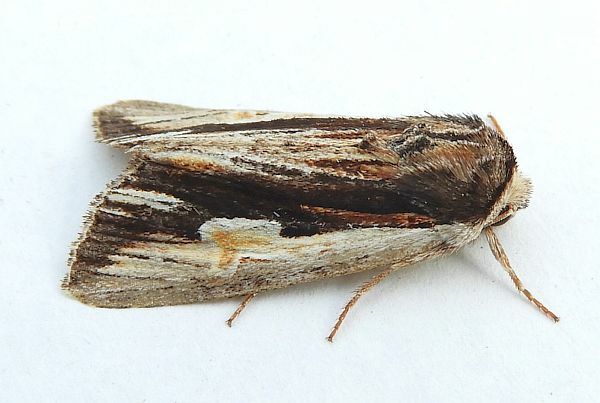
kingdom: Animalia
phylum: Arthropoda
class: Insecta
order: Lepidoptera
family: Noctuidae
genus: Achatia
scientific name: Achatia evicta
